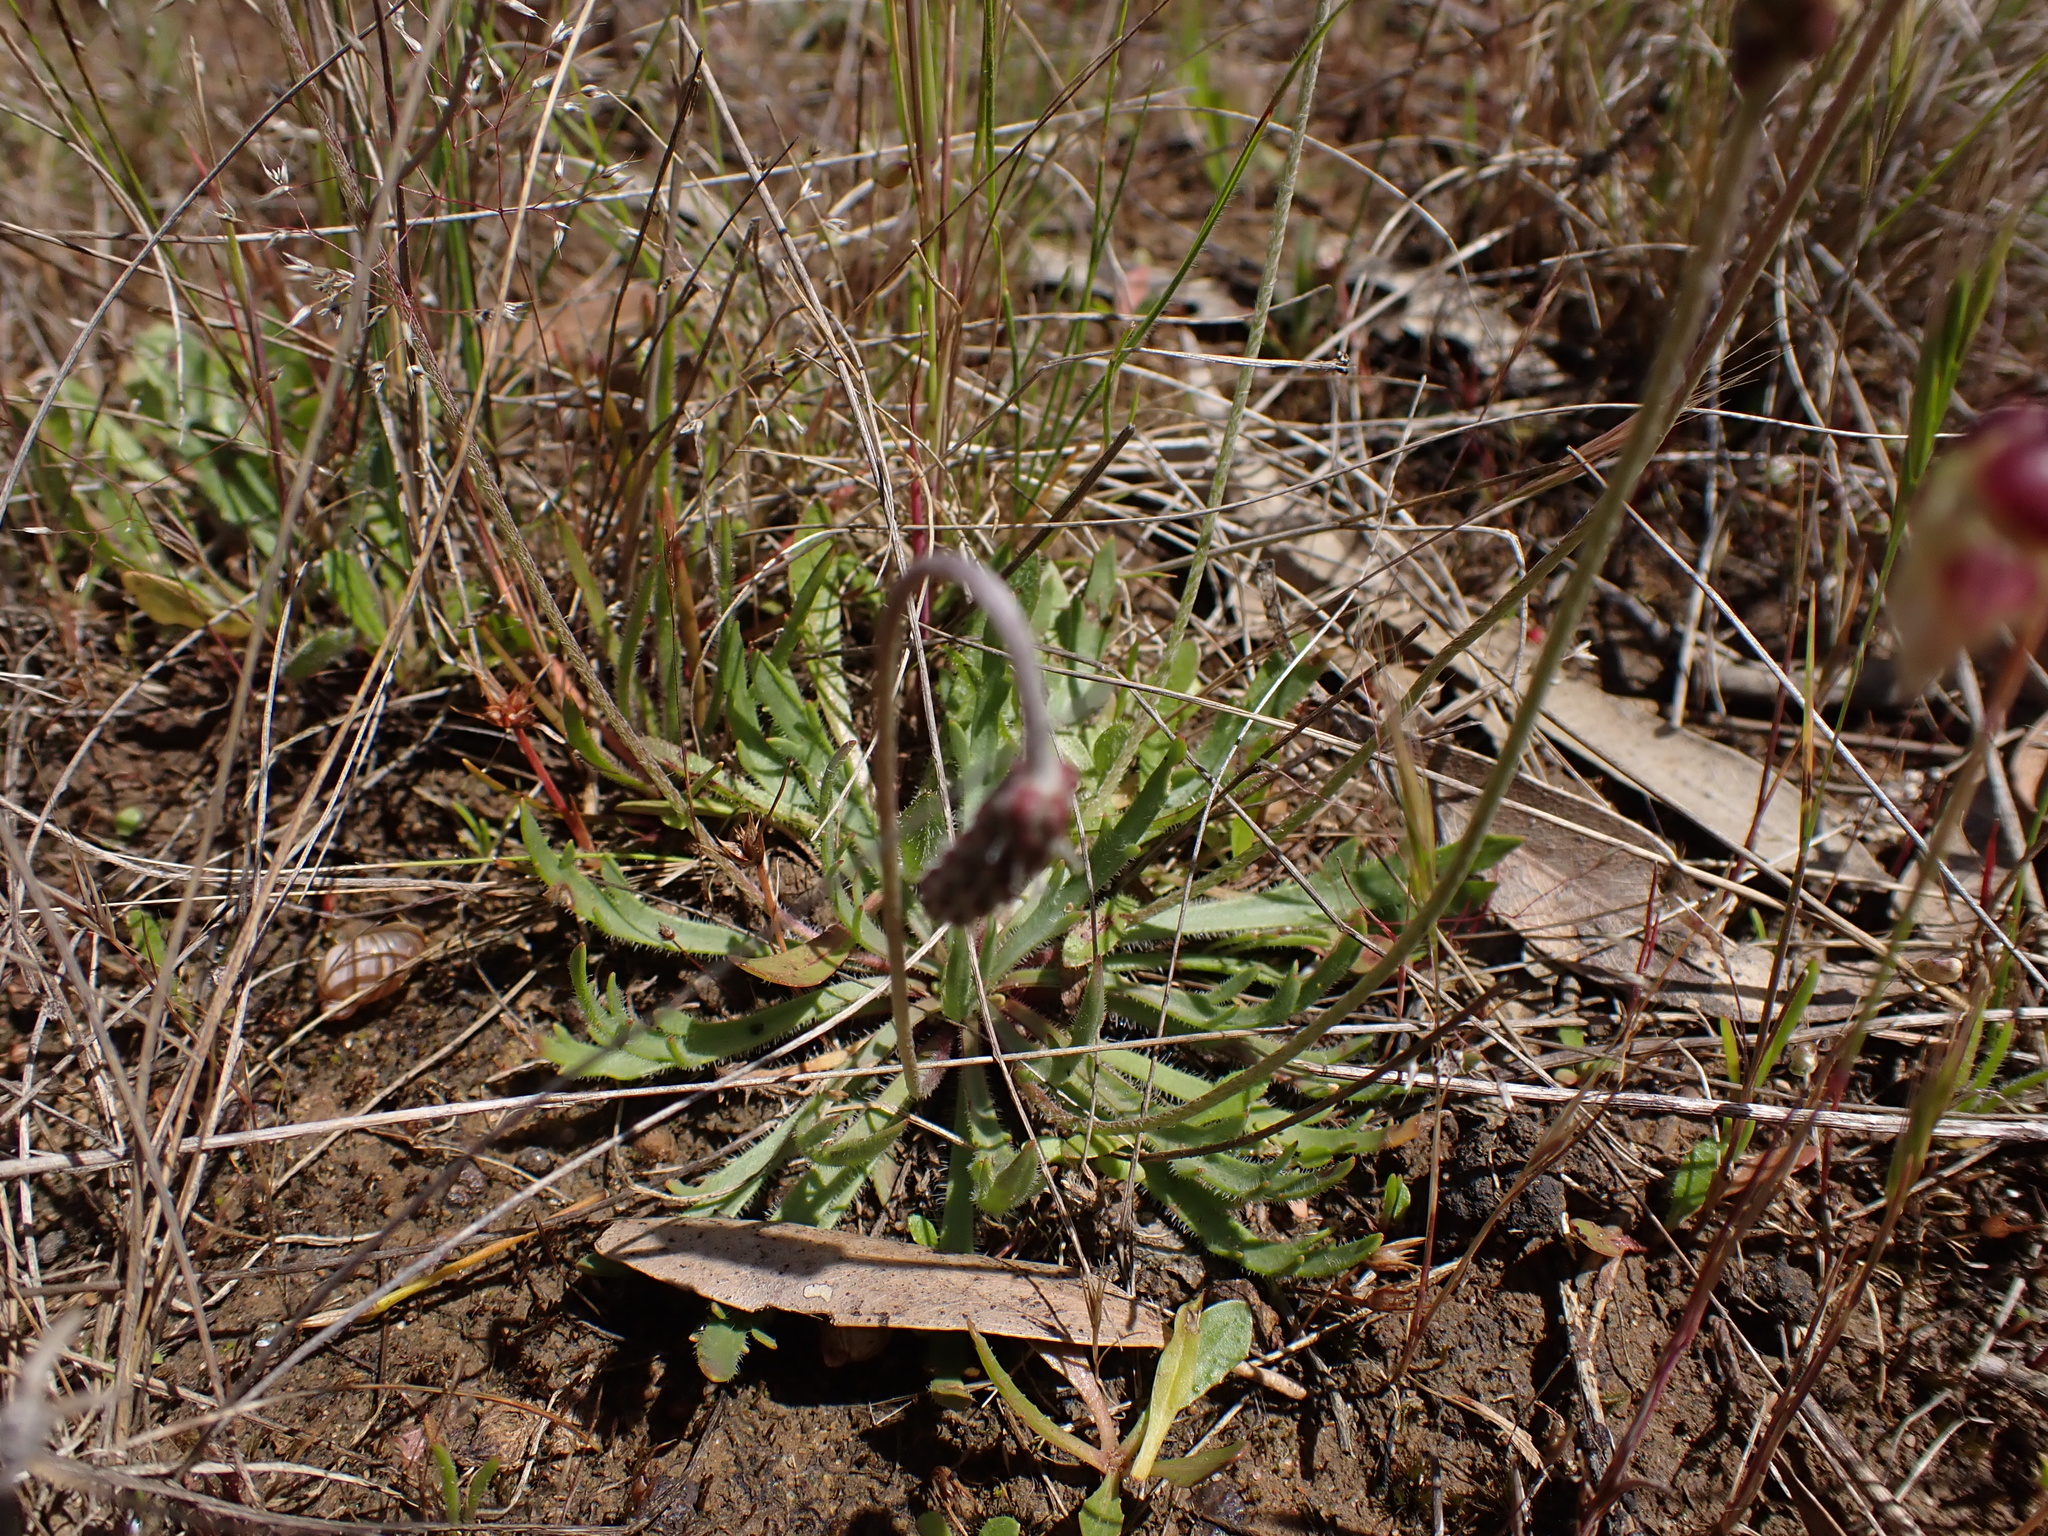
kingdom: Plantae
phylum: Tracheophyta
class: Magnoliopsida
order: Lamiales
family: Plantaginaceae
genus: Plantago
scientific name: Plantago coronopus
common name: Buck's-horn plantain
